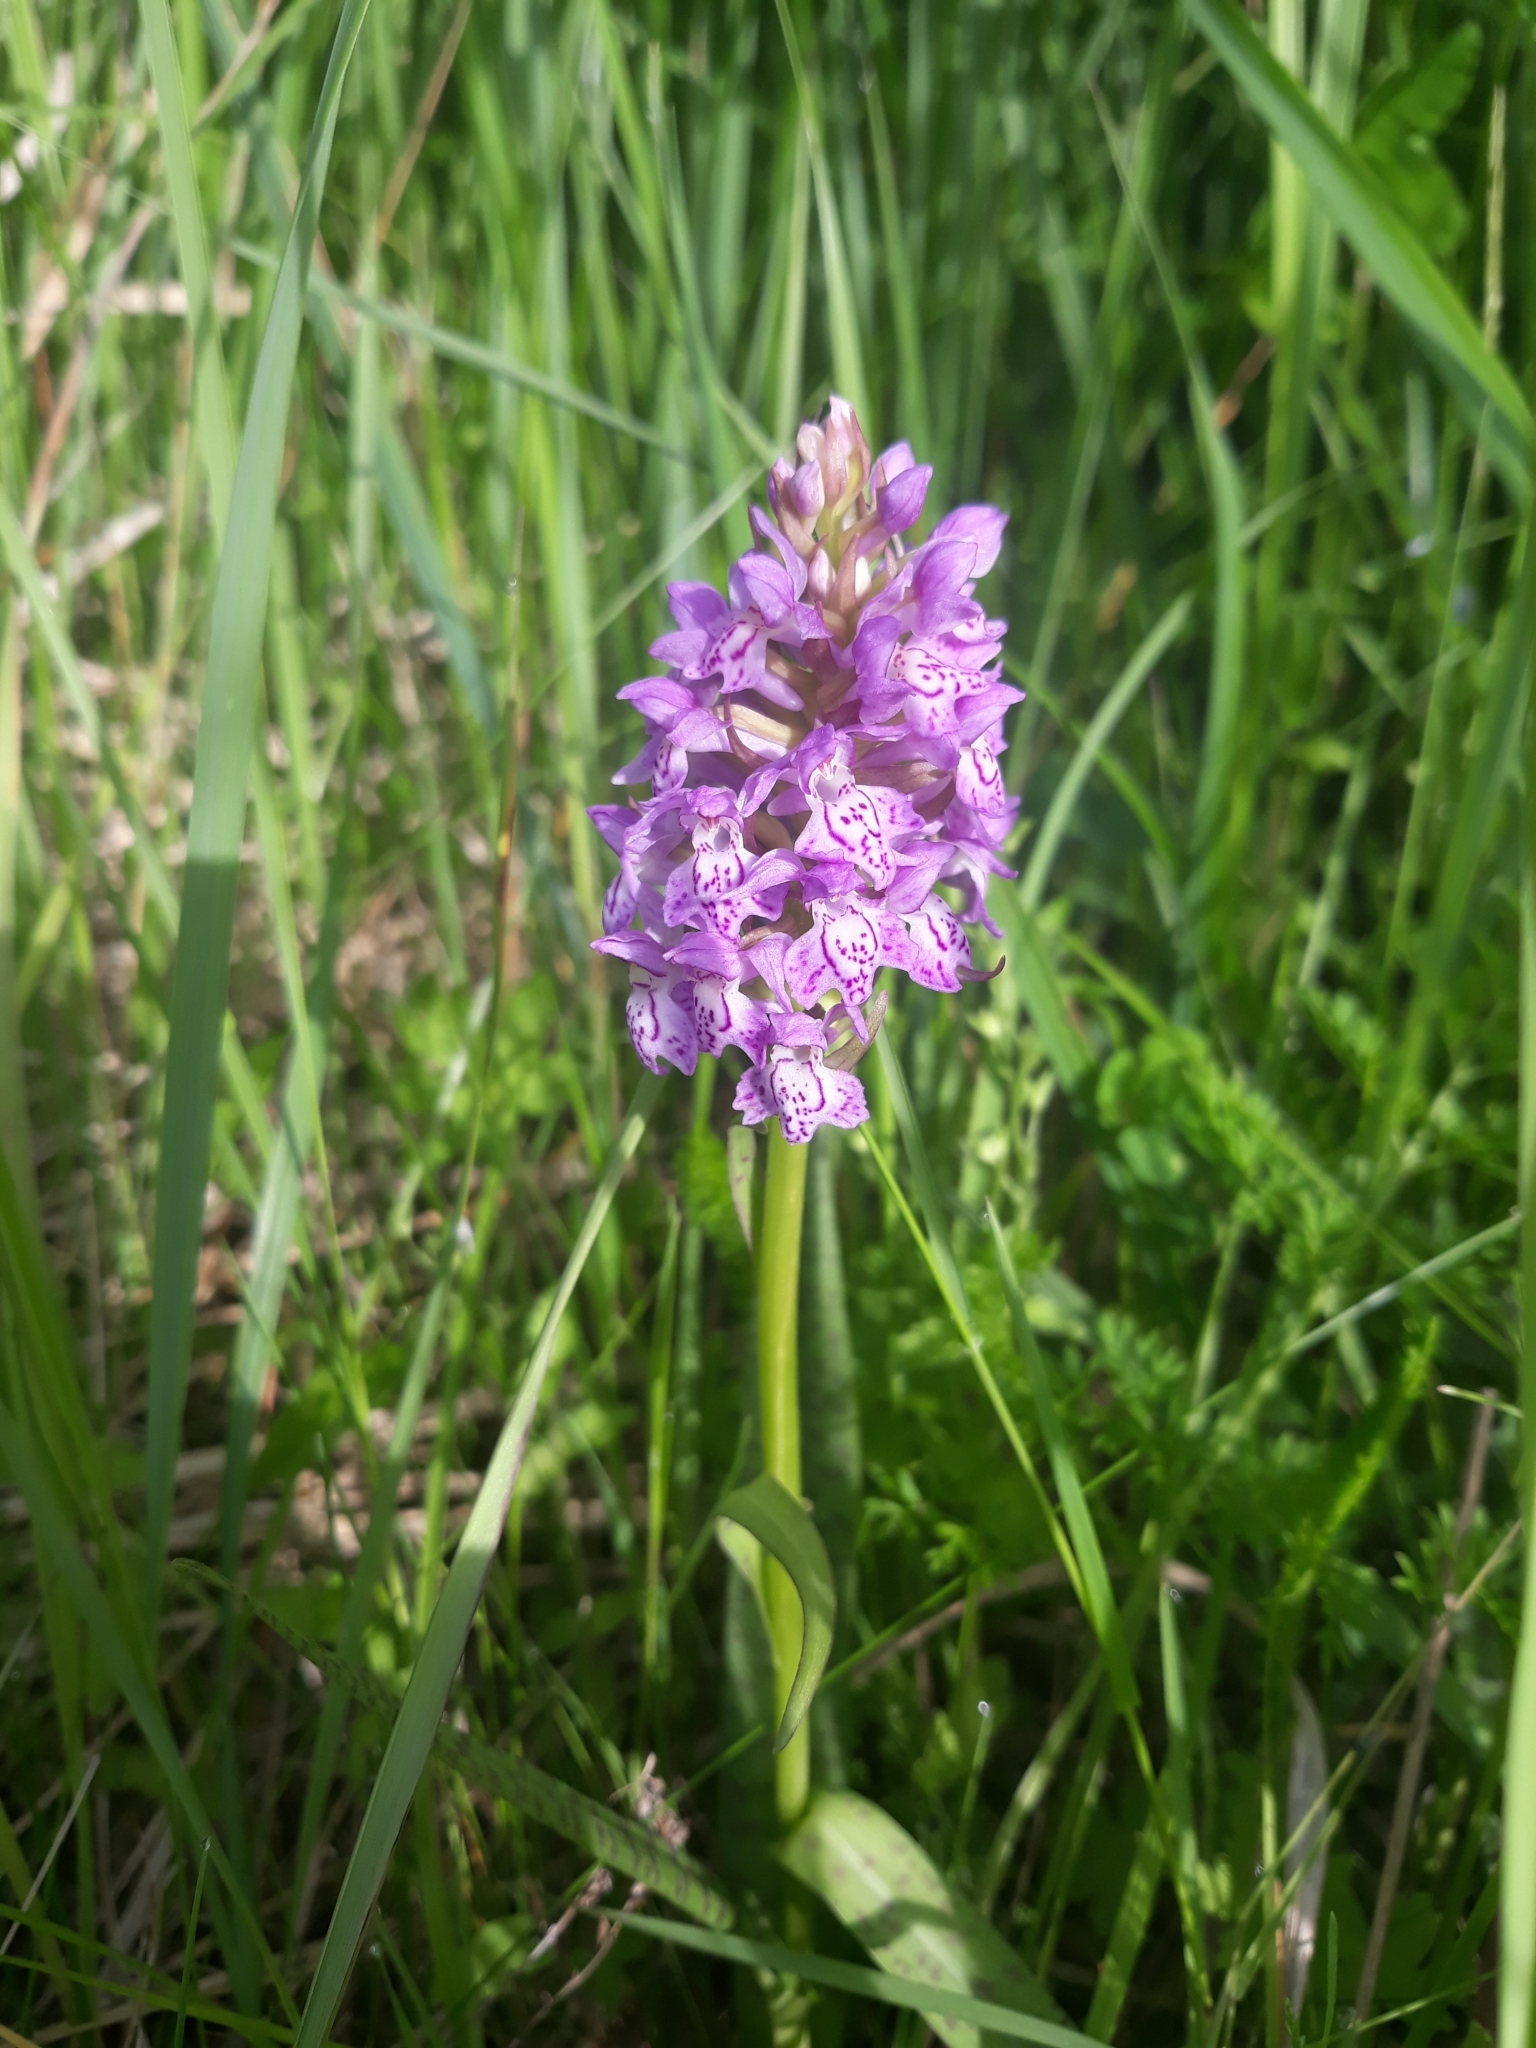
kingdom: Plantae
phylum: Tracheophyta
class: Liliopsida
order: Asparagales
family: Orchidaceae
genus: Dactylorhiza
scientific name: Dactylorhiza majalis
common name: Marsh orchid
